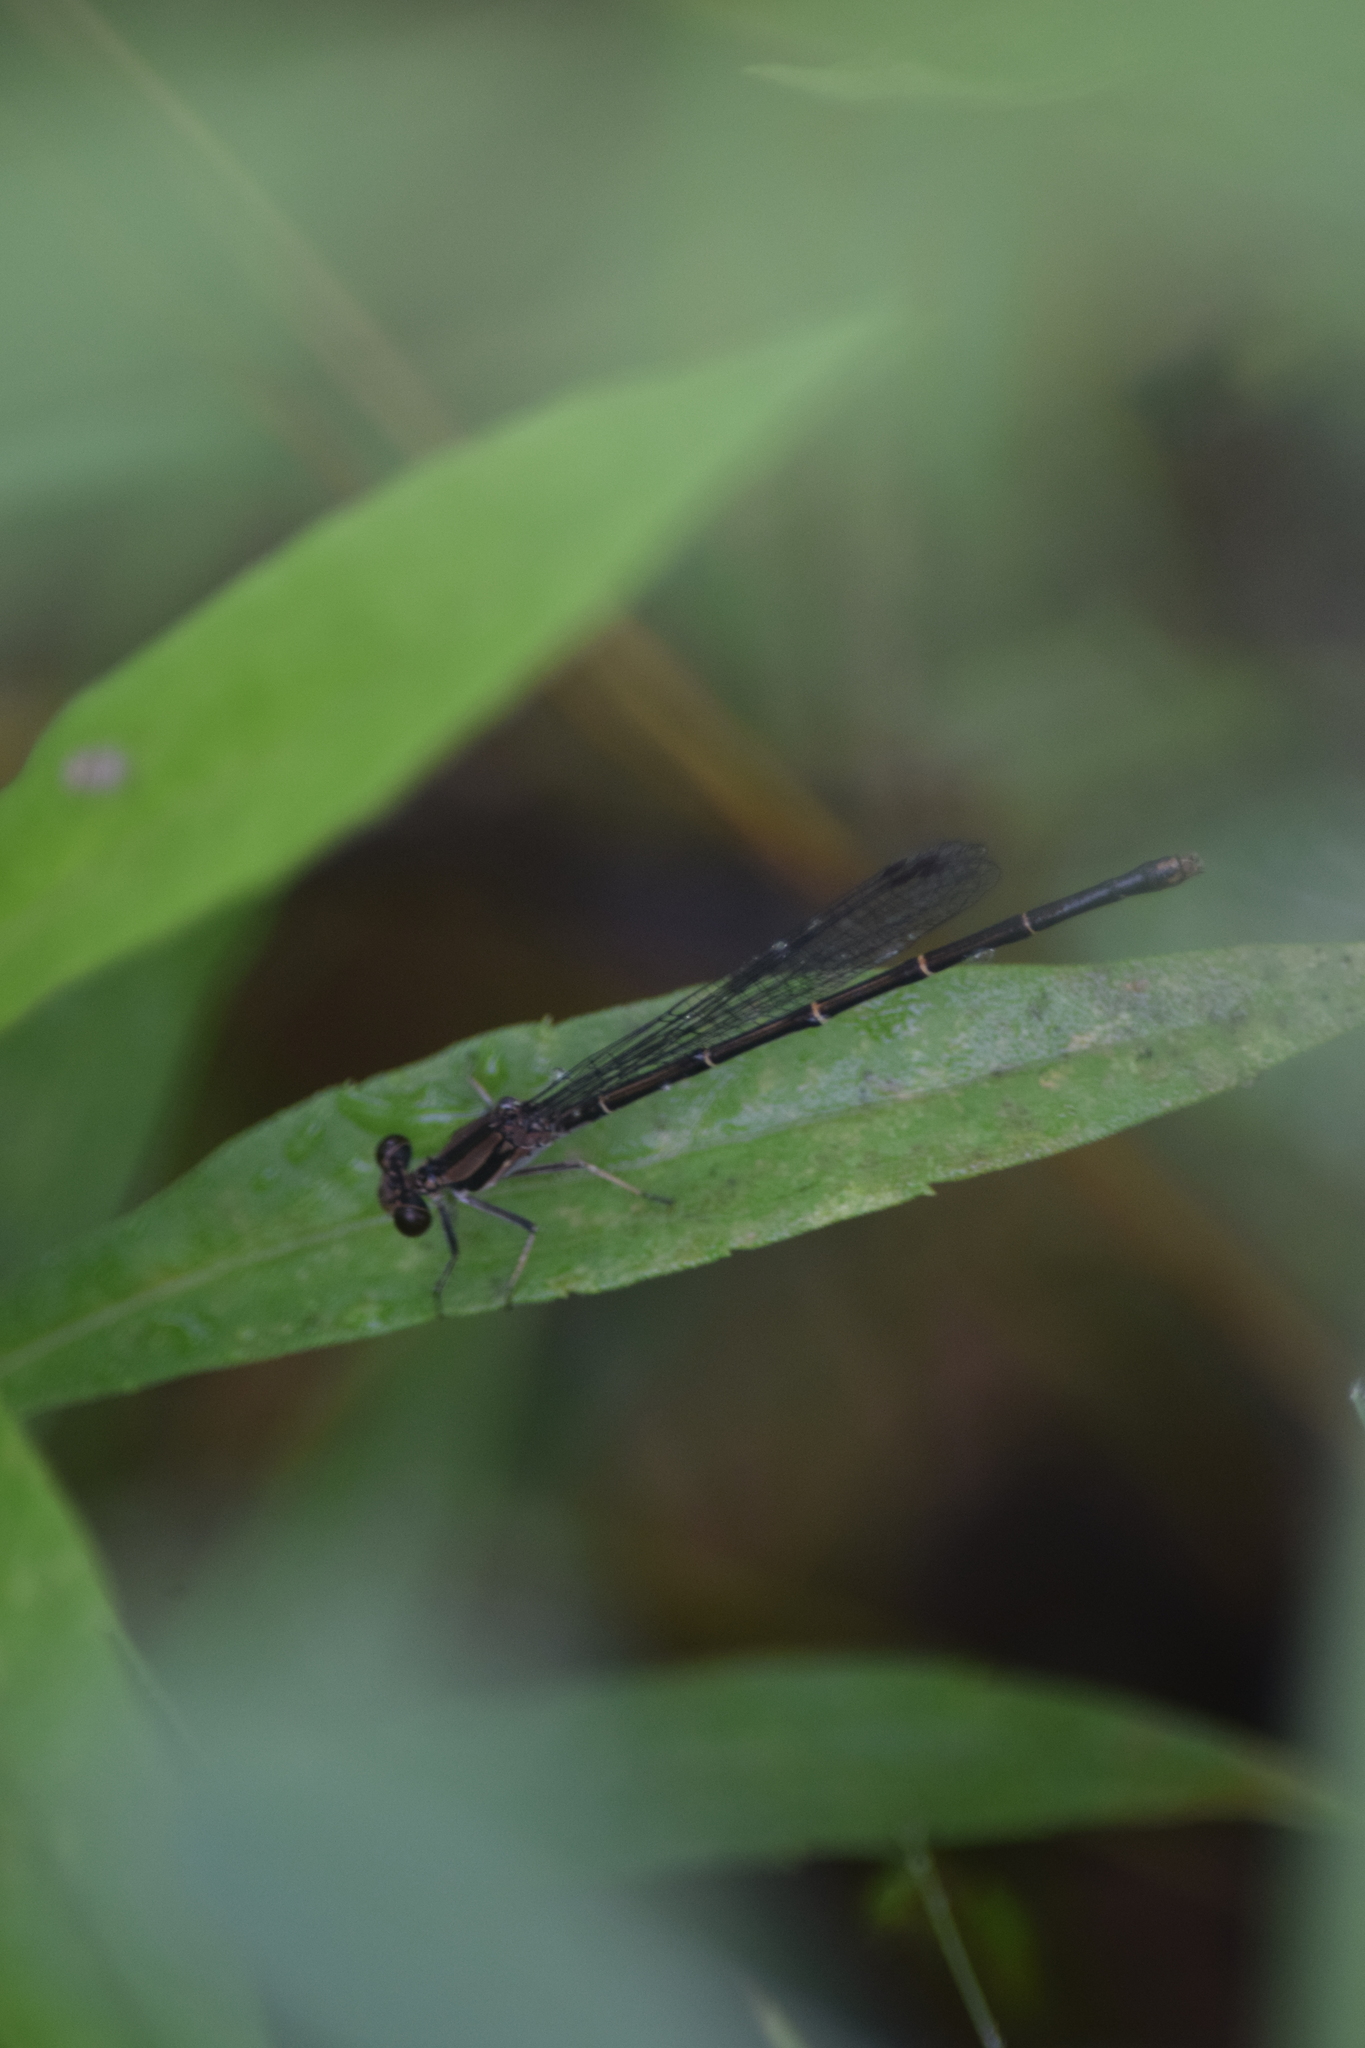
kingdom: Animalia
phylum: Arthropoda
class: Insecta
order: Odonata
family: Coenagrionidae
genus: Argia
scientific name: Argia tibialis
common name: Blue-tipped dancer
